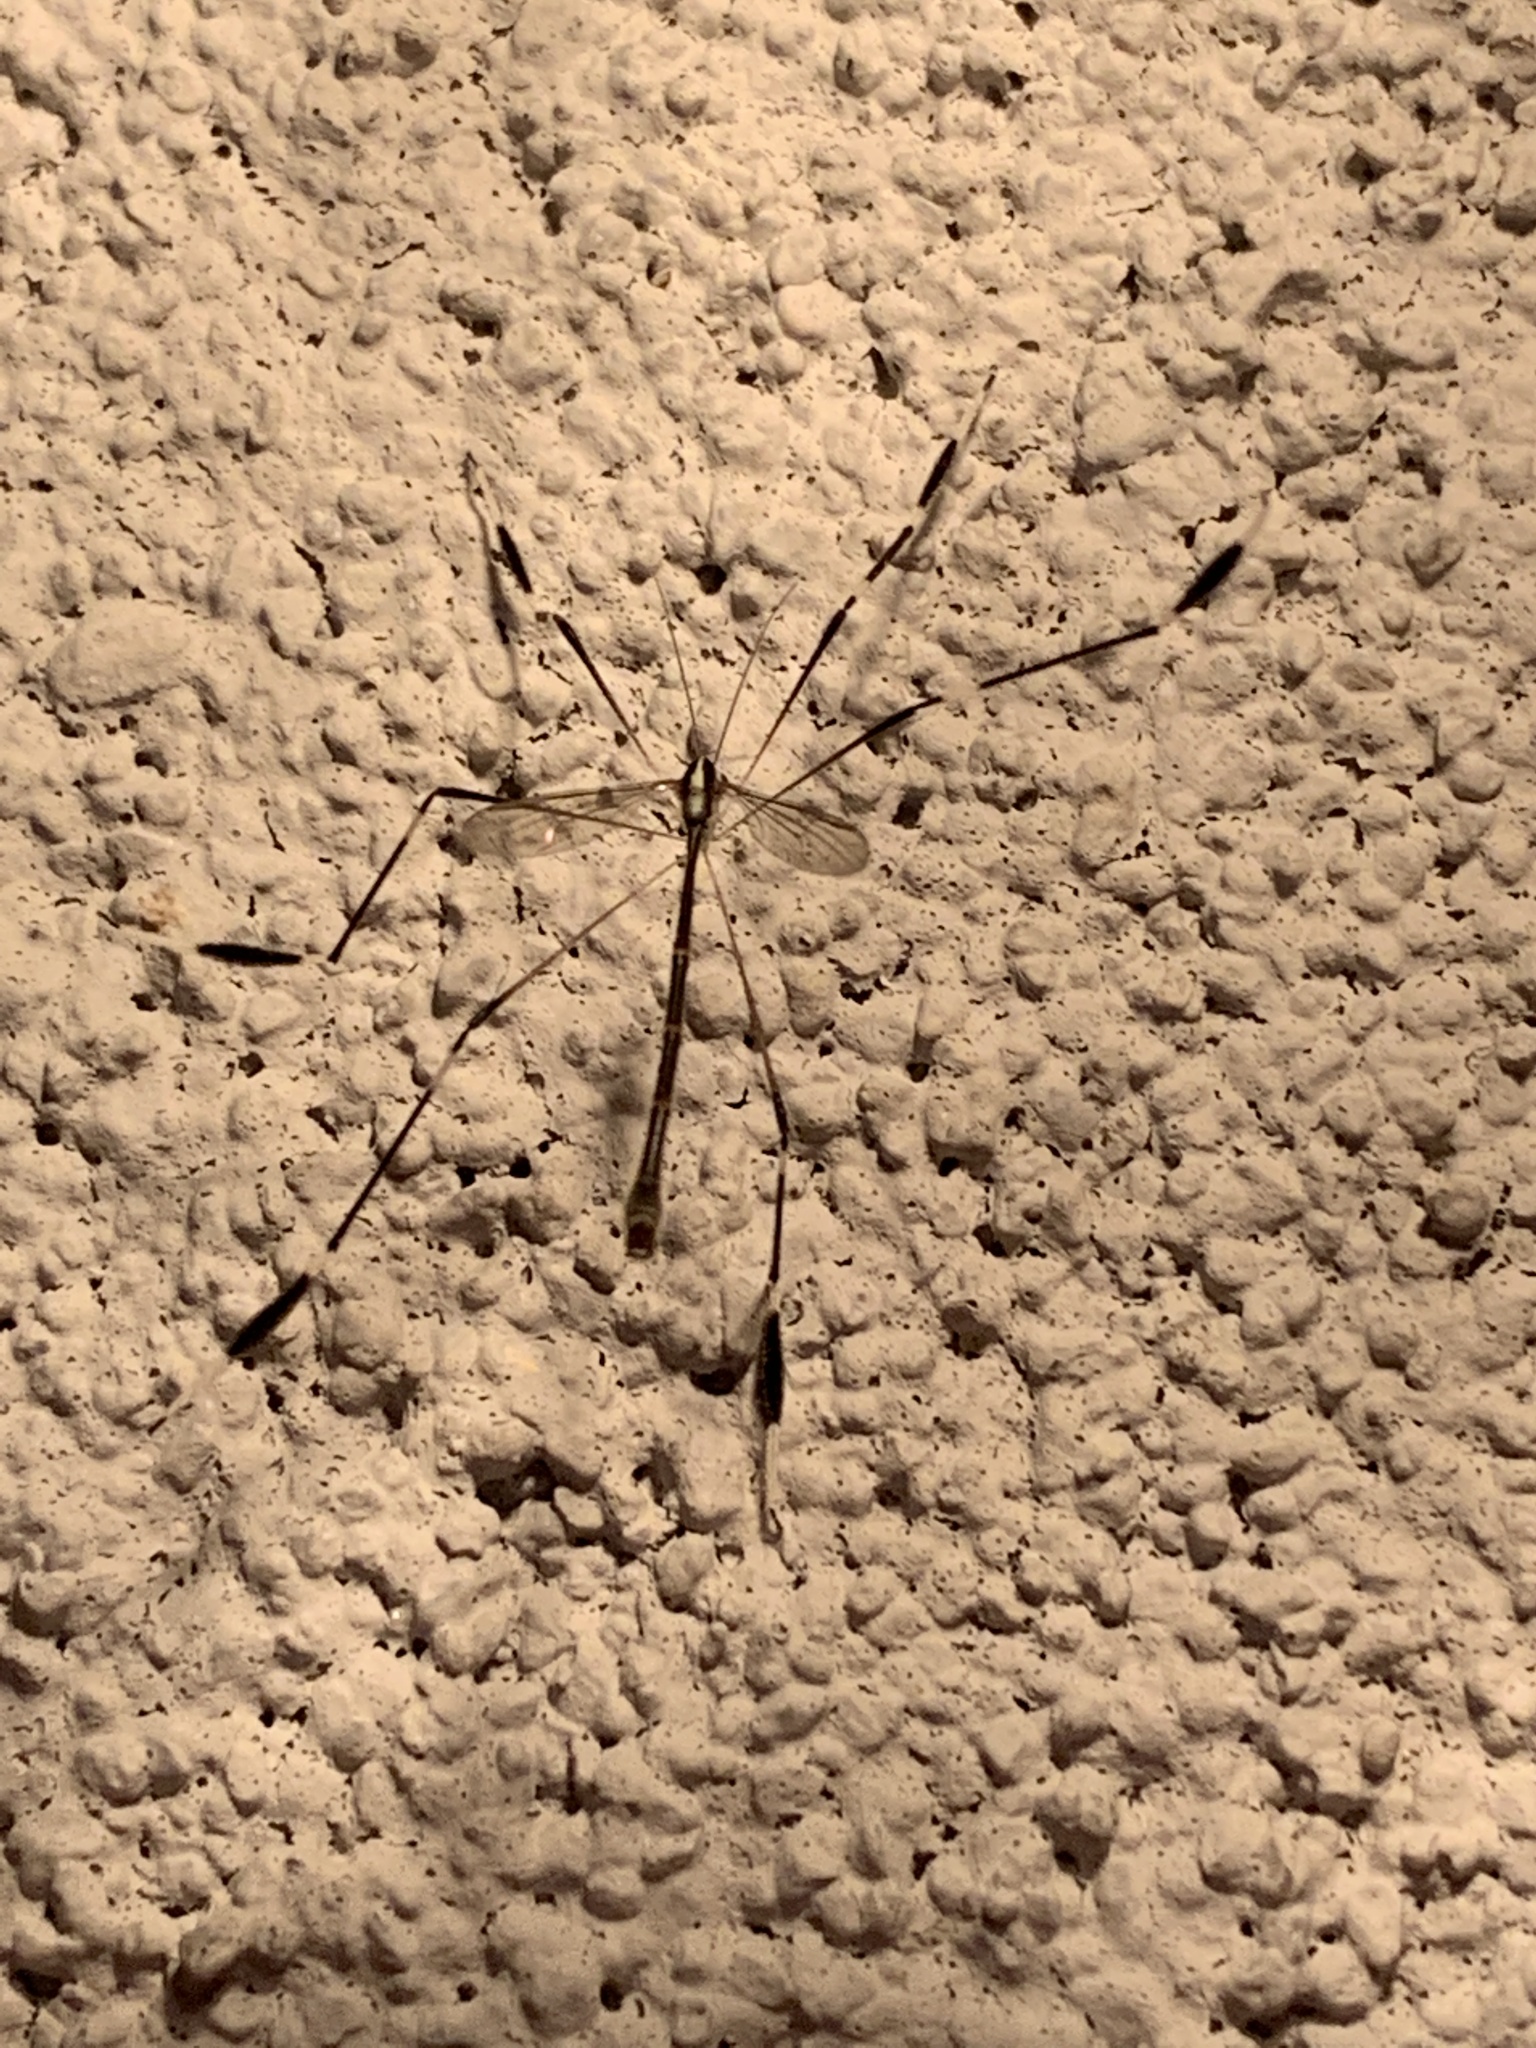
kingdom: Animalia
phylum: Arthropoda
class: Insecta
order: Diptera
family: Ptychopteridae
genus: Bittacomorpha
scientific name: Bittacomorpha clavipes
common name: Eastern phantom crane fly
